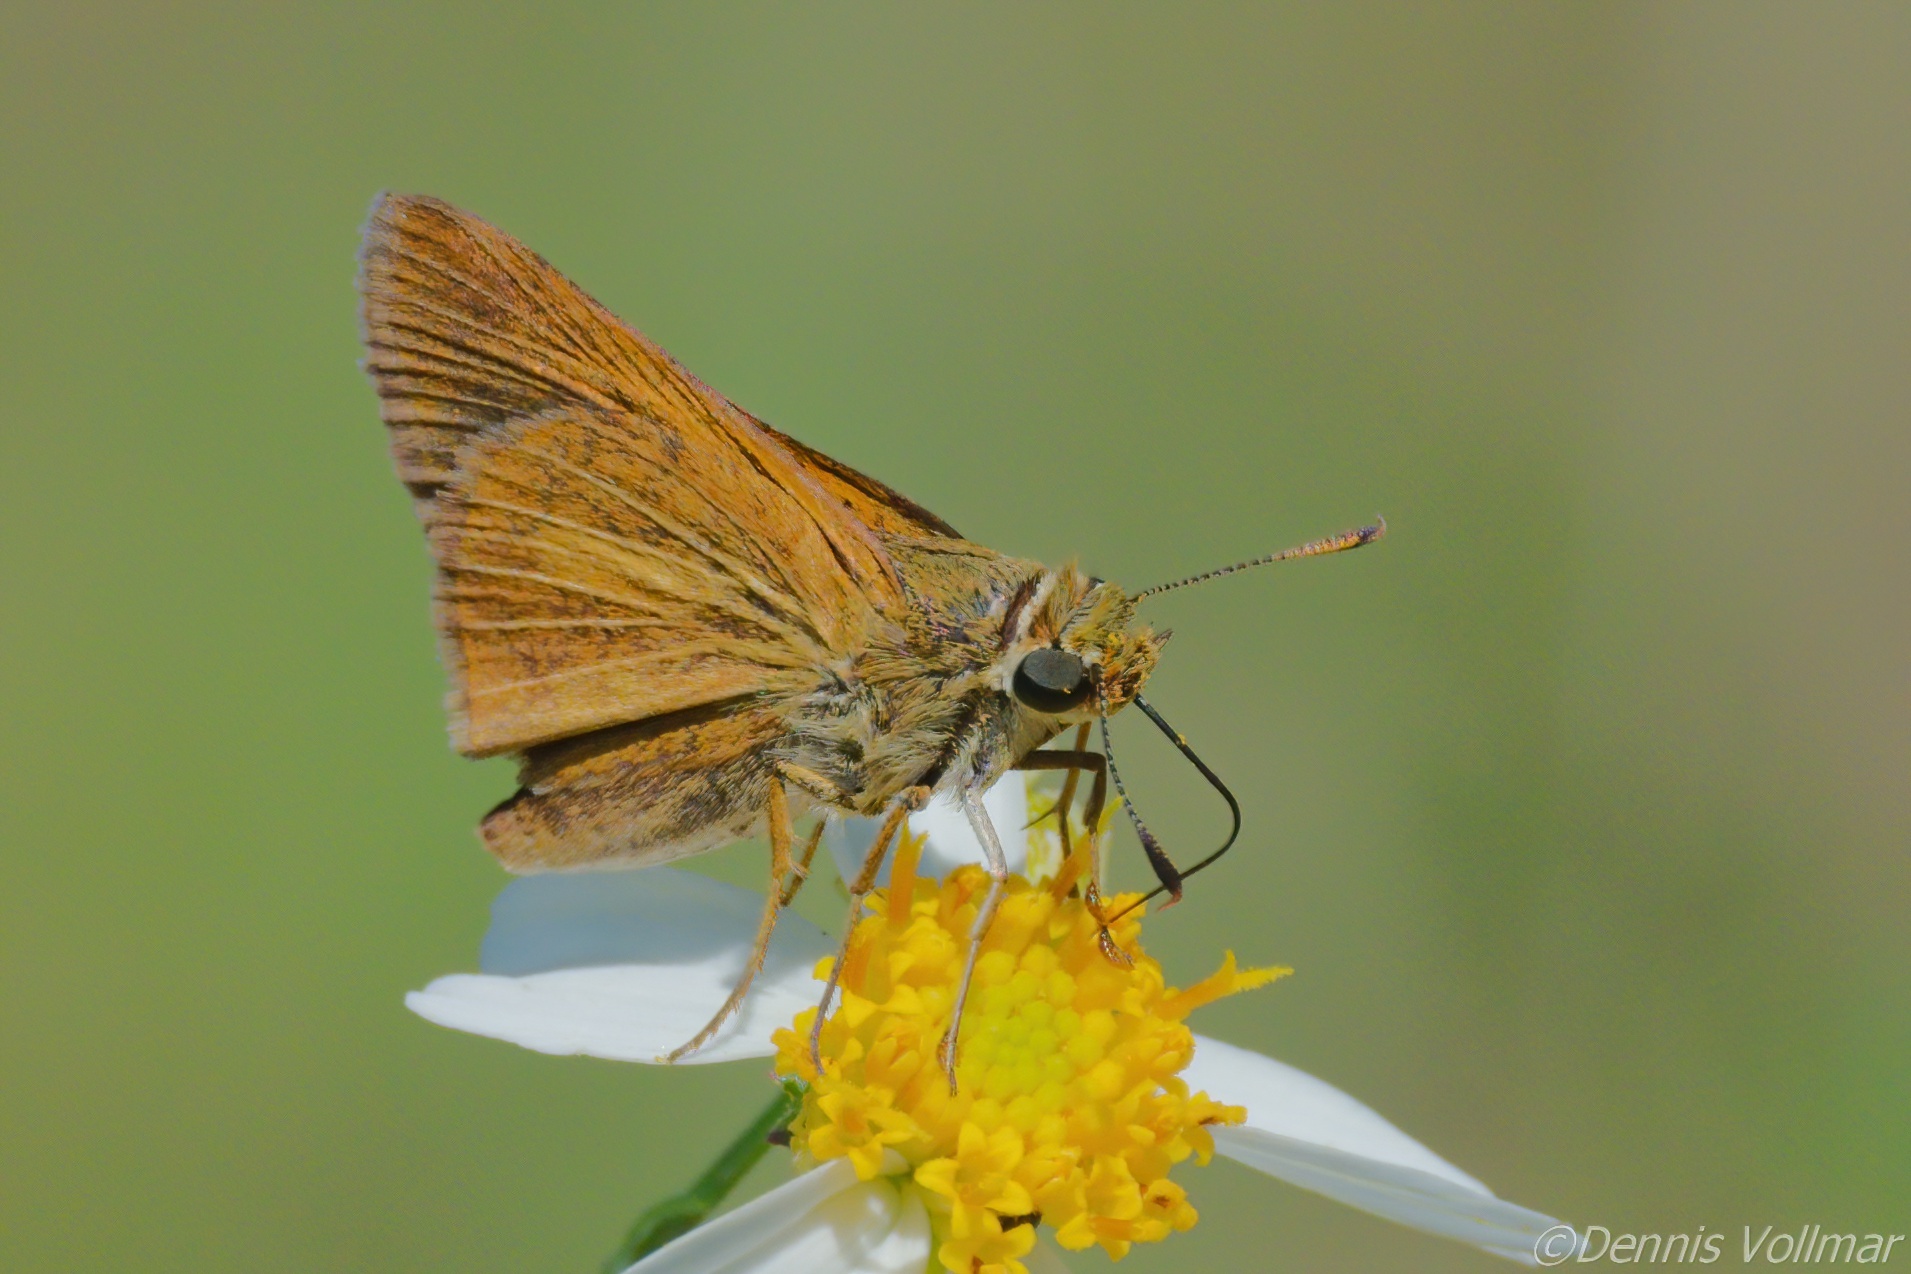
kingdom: Animalia
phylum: Arthropoda
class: Insecta
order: Lepidoptera
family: Hesperiidae
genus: Euphyes
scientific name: Euphyes dion
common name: Dion skipper
